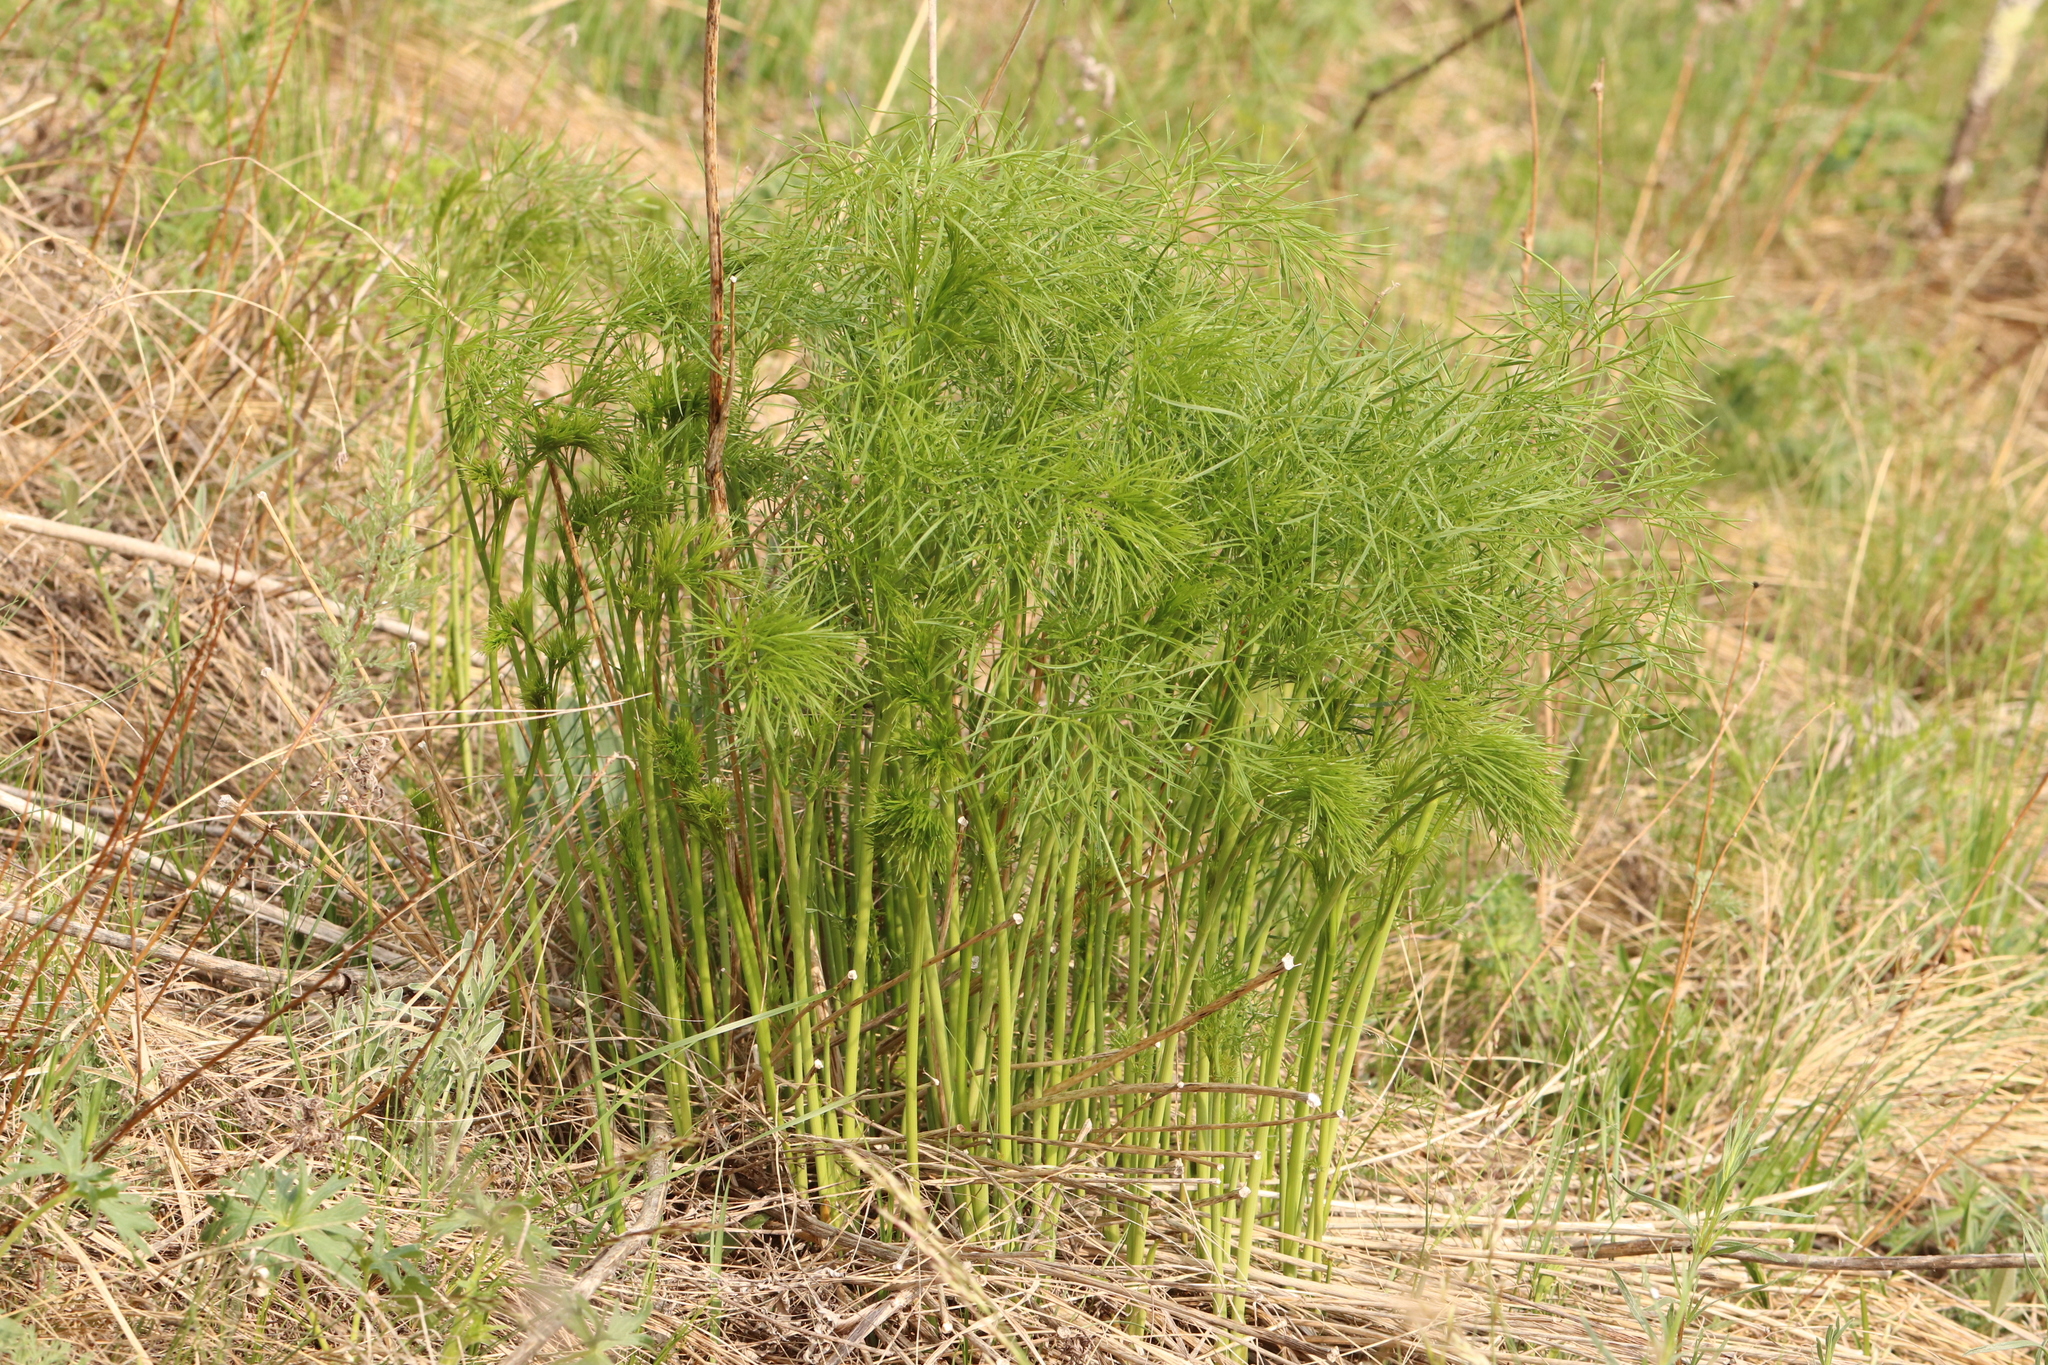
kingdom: Plantae
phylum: Tracheophyta
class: Magnoliopsida
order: Apiales
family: Apiaceae
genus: Peucedanum
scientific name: Peucedanum morisonii
